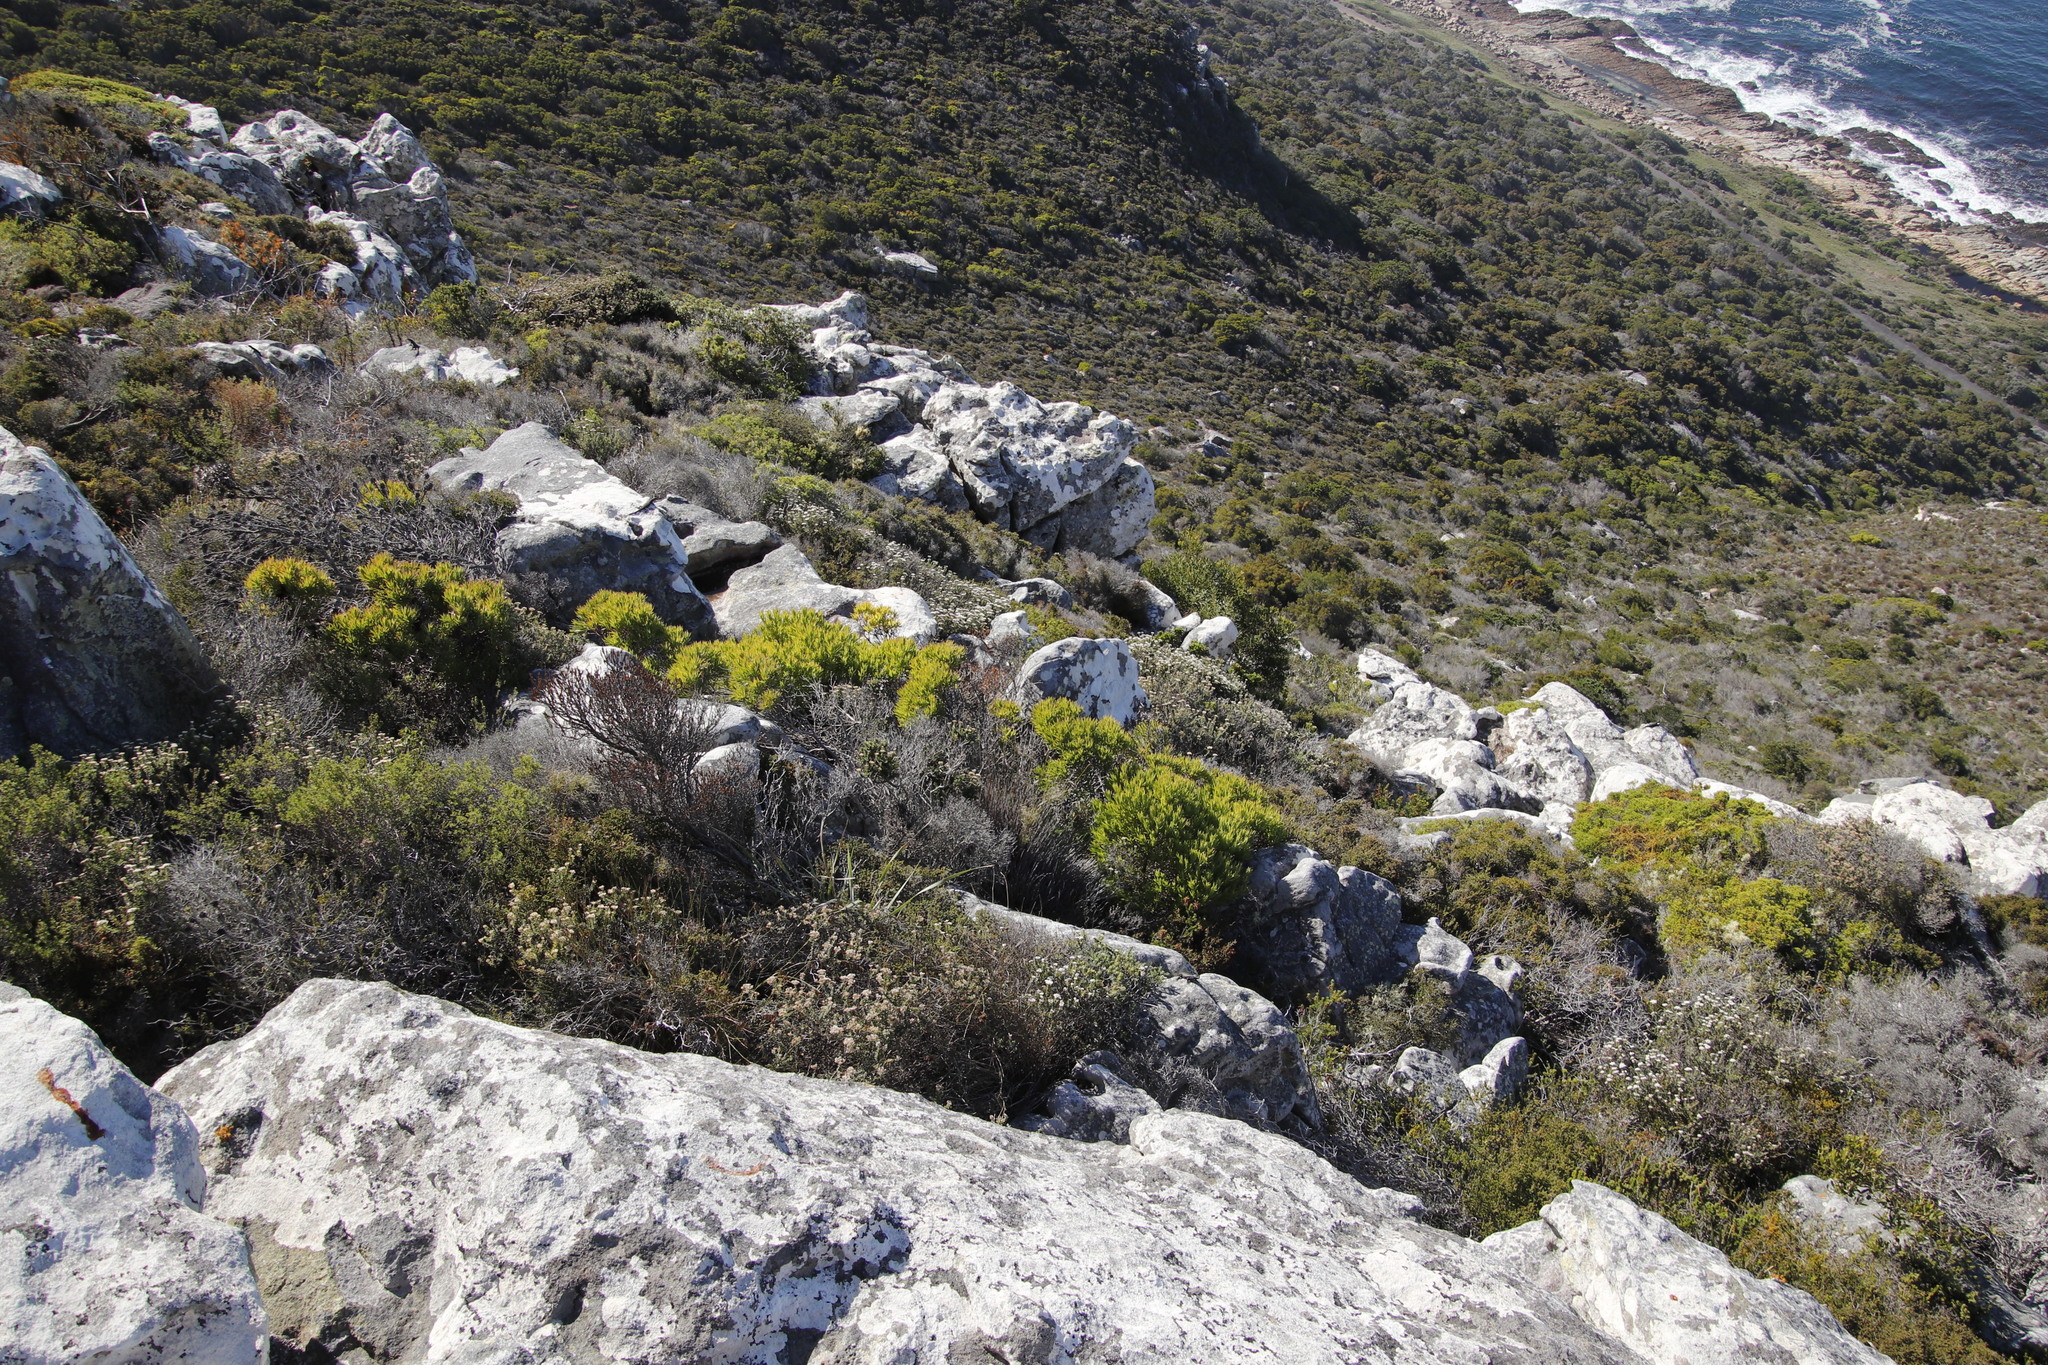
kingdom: Plantae
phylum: Tracheophyta
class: Magnoliopsida
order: Proteales
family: Proteaceae
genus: Leucadendron
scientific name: Leucadendron xanthoconus
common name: Sickle-leaf conebush
